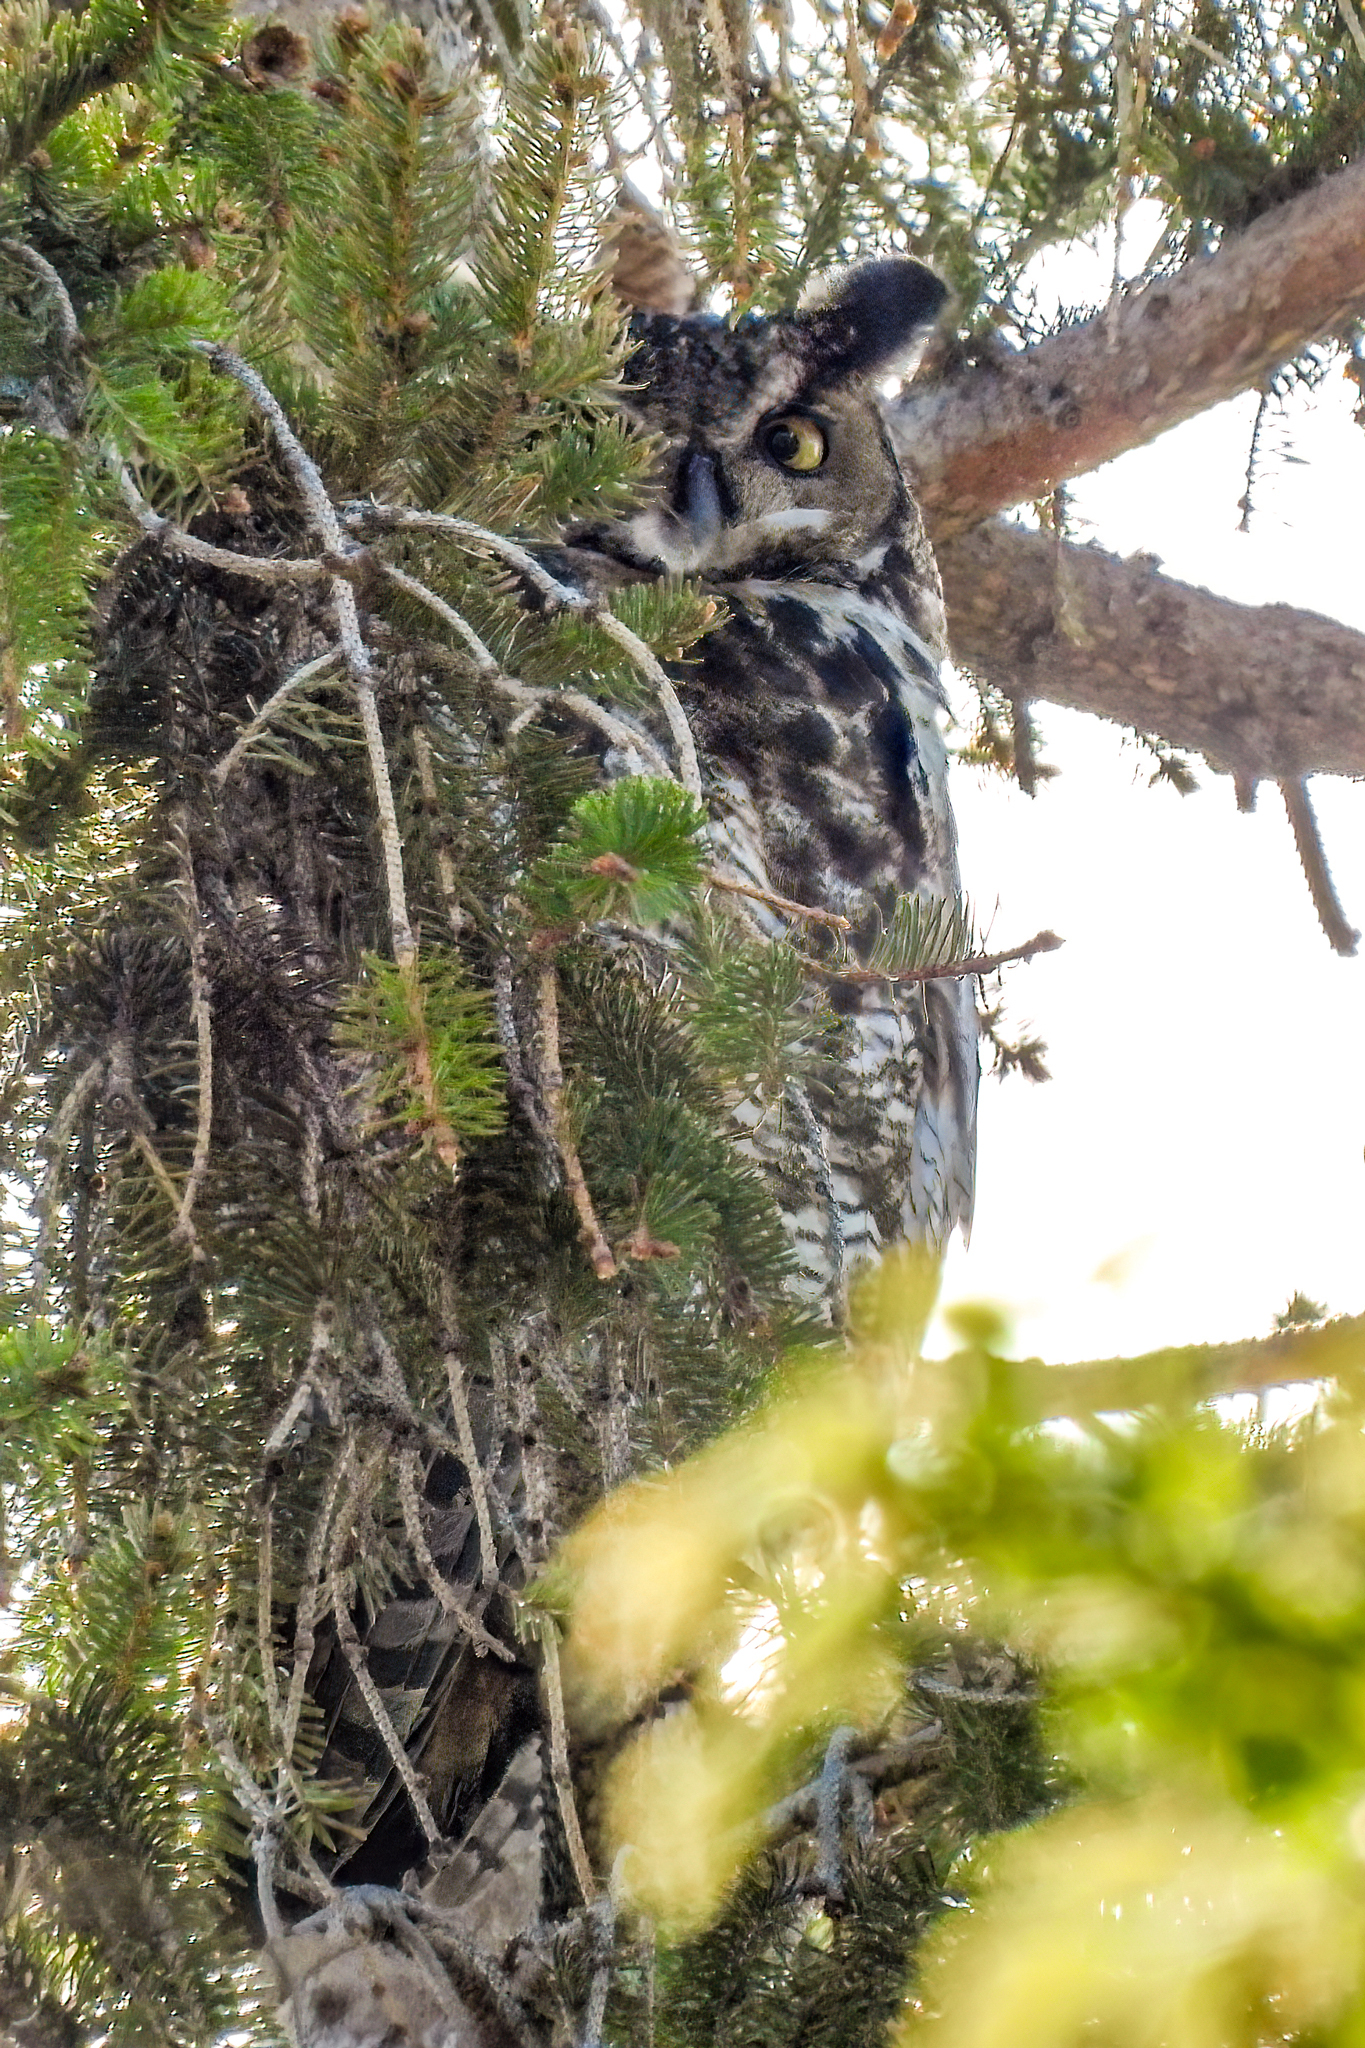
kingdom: Animalia
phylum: Chordata
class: Aves
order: Strigiformes
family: Strigidae
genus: Bubo
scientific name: Bubo virginianus
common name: Great horned owl
